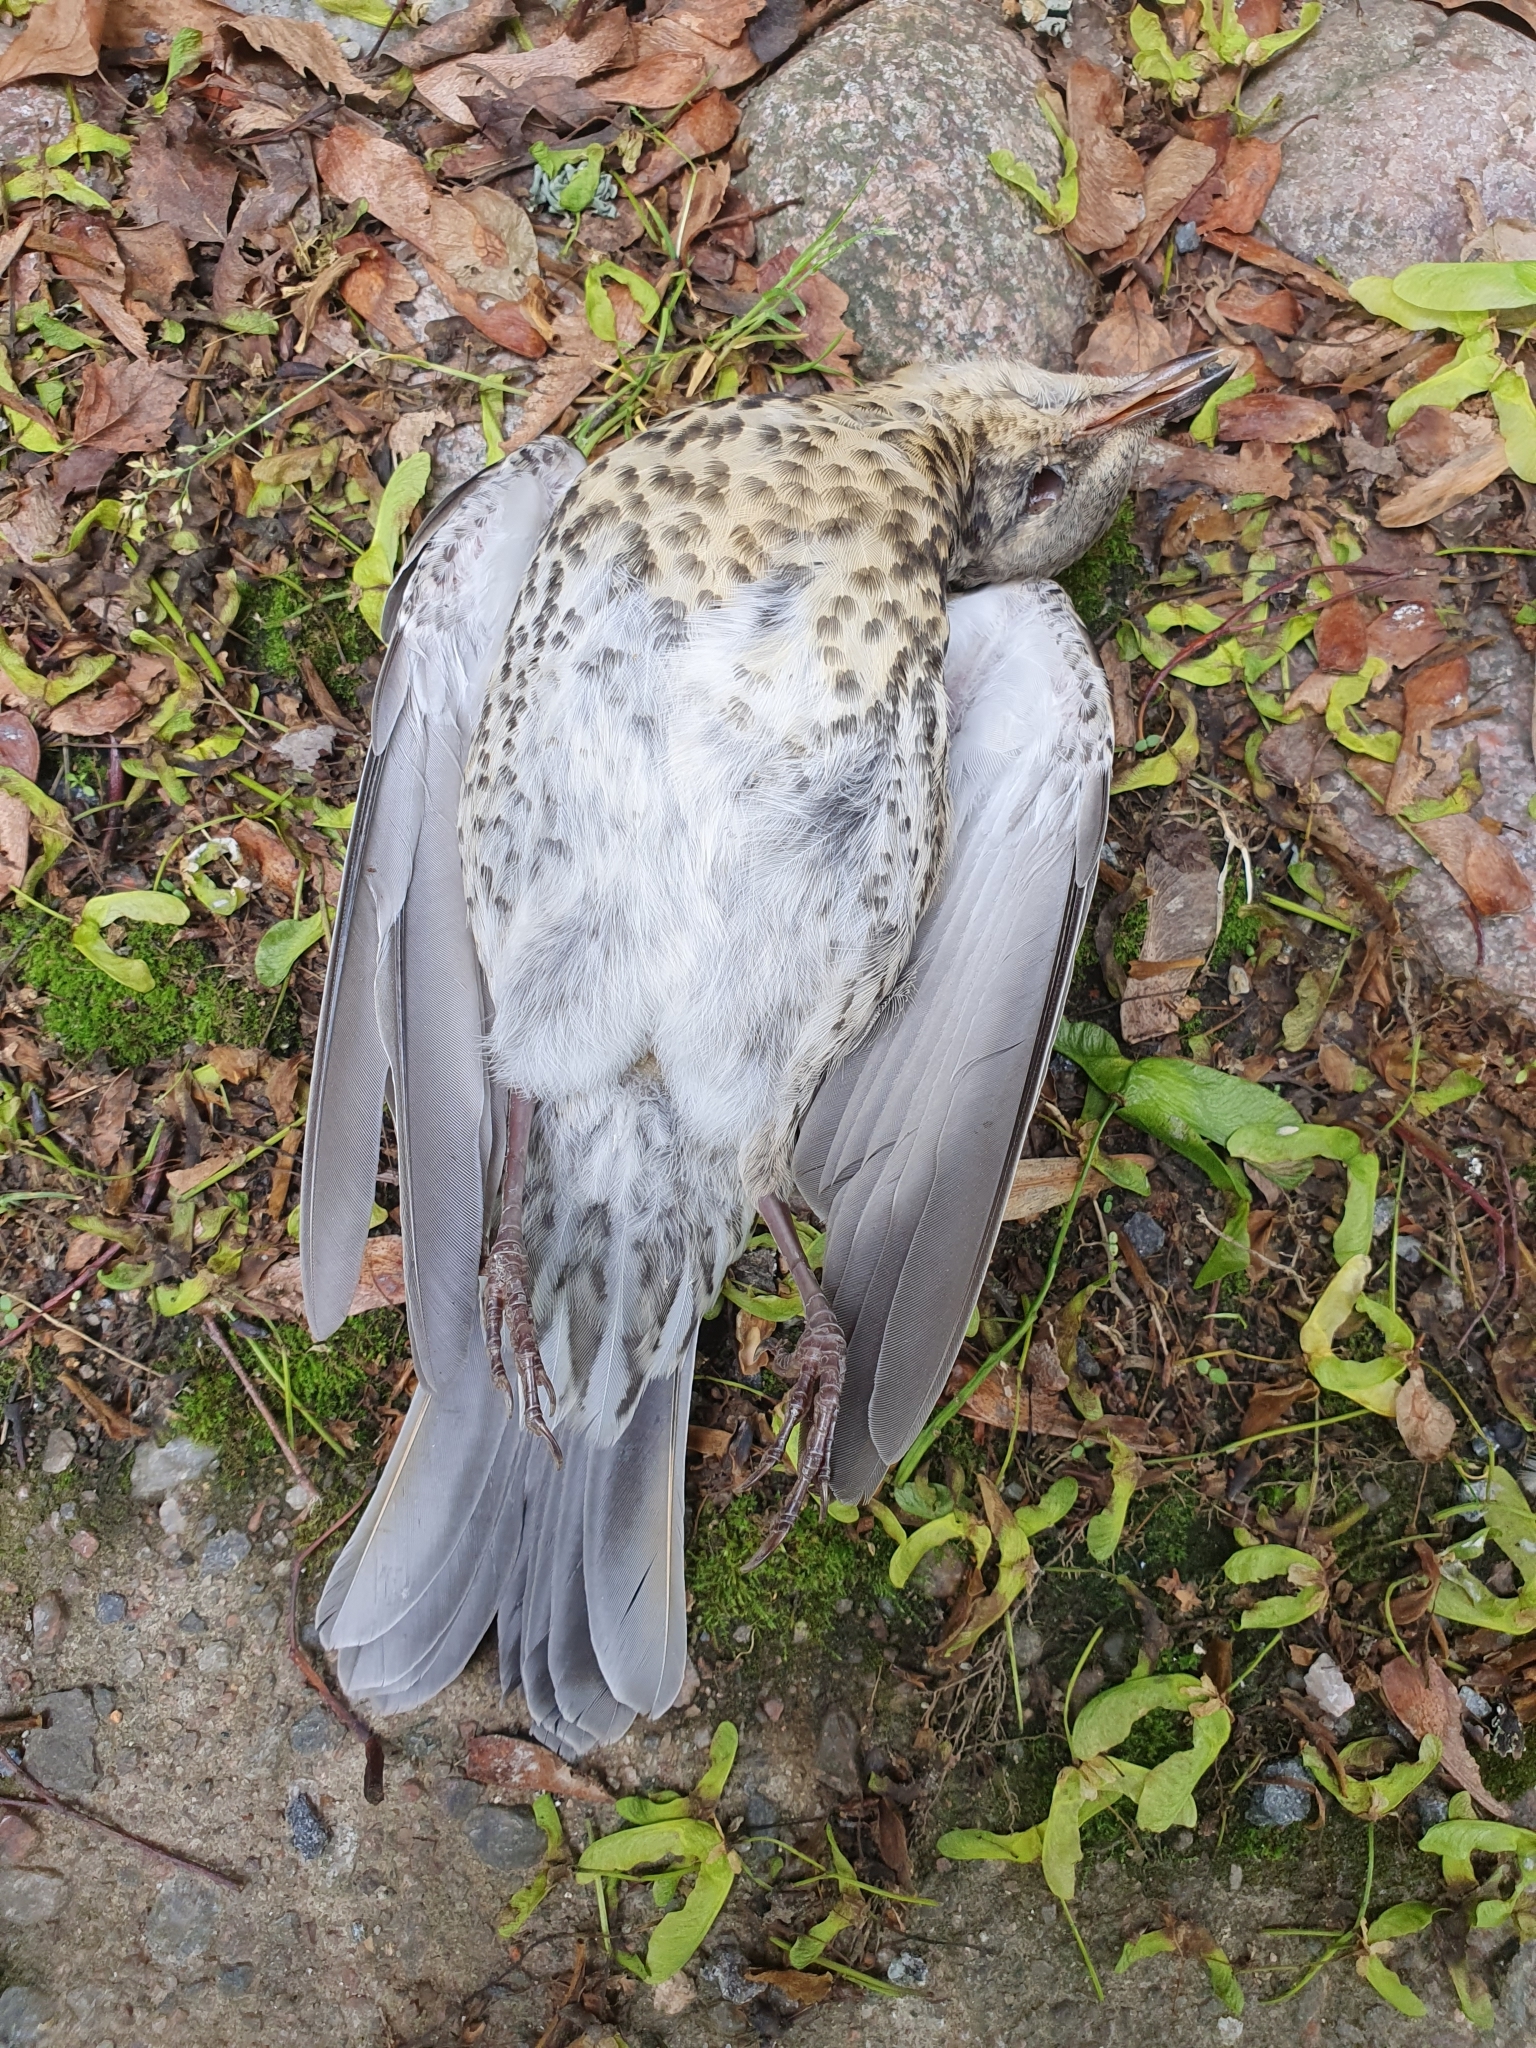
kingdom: Animalia
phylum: Chordata
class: Aves
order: Passeriformes
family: Turdidae
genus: Turdus
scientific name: Turdus pilaris
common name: Fieldfare
